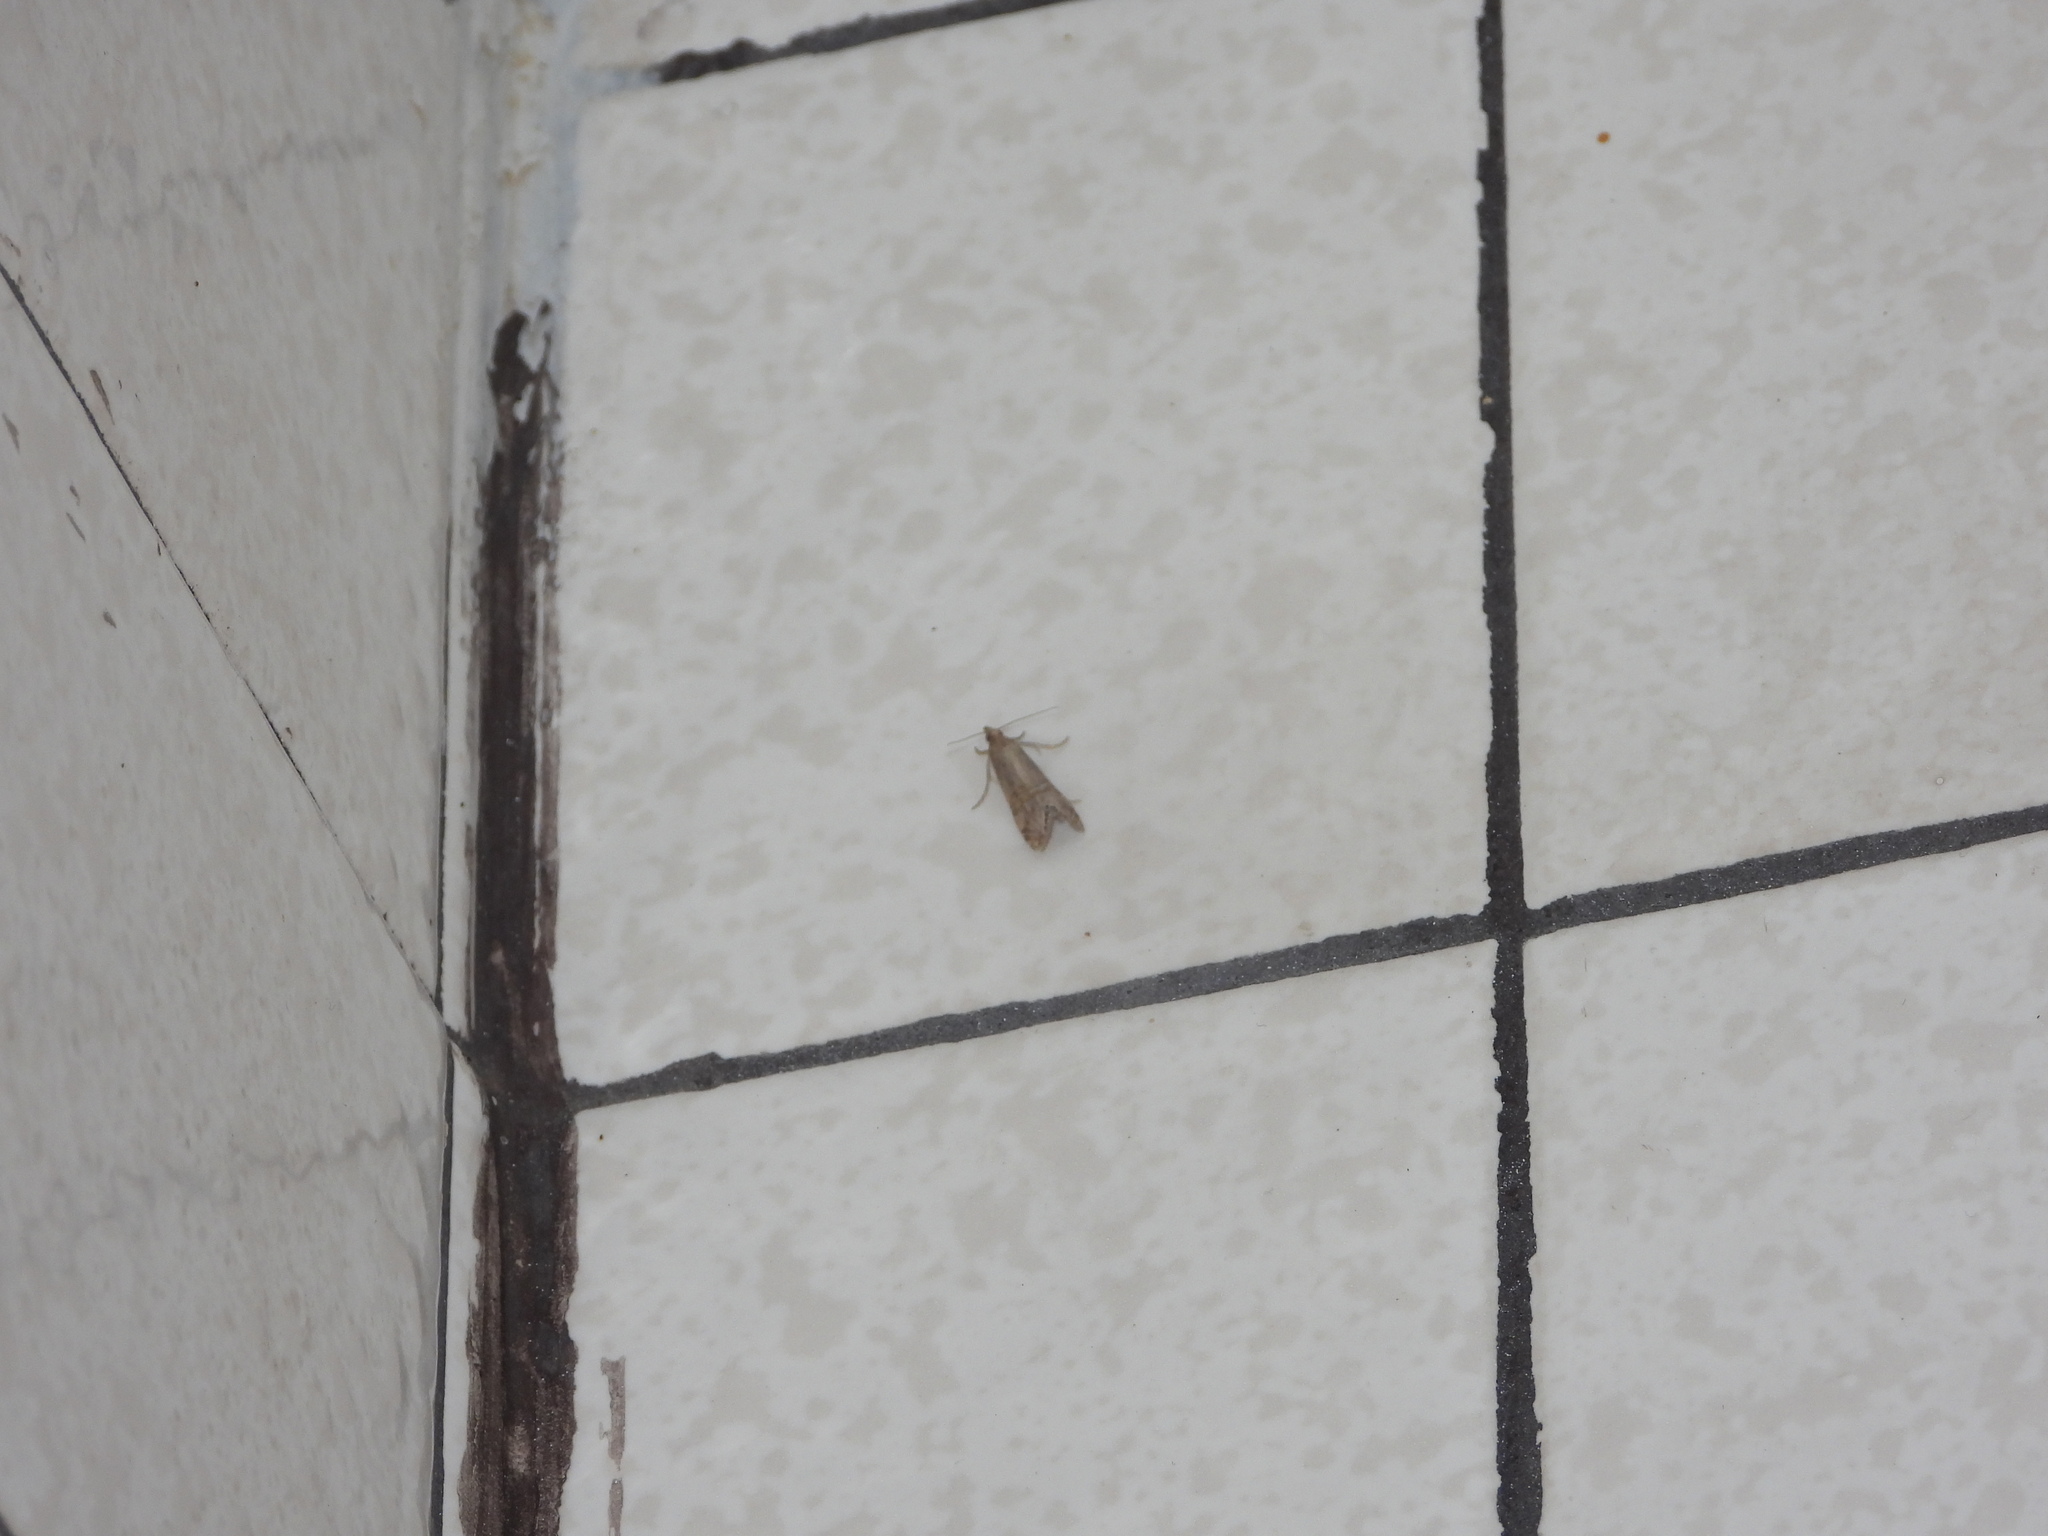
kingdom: Animalia
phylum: Arthropoda
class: Insecta
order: Lepidoptera
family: Crambidae
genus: Euchromius
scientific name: Euchromius ocellea
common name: Necklace veneer moth
